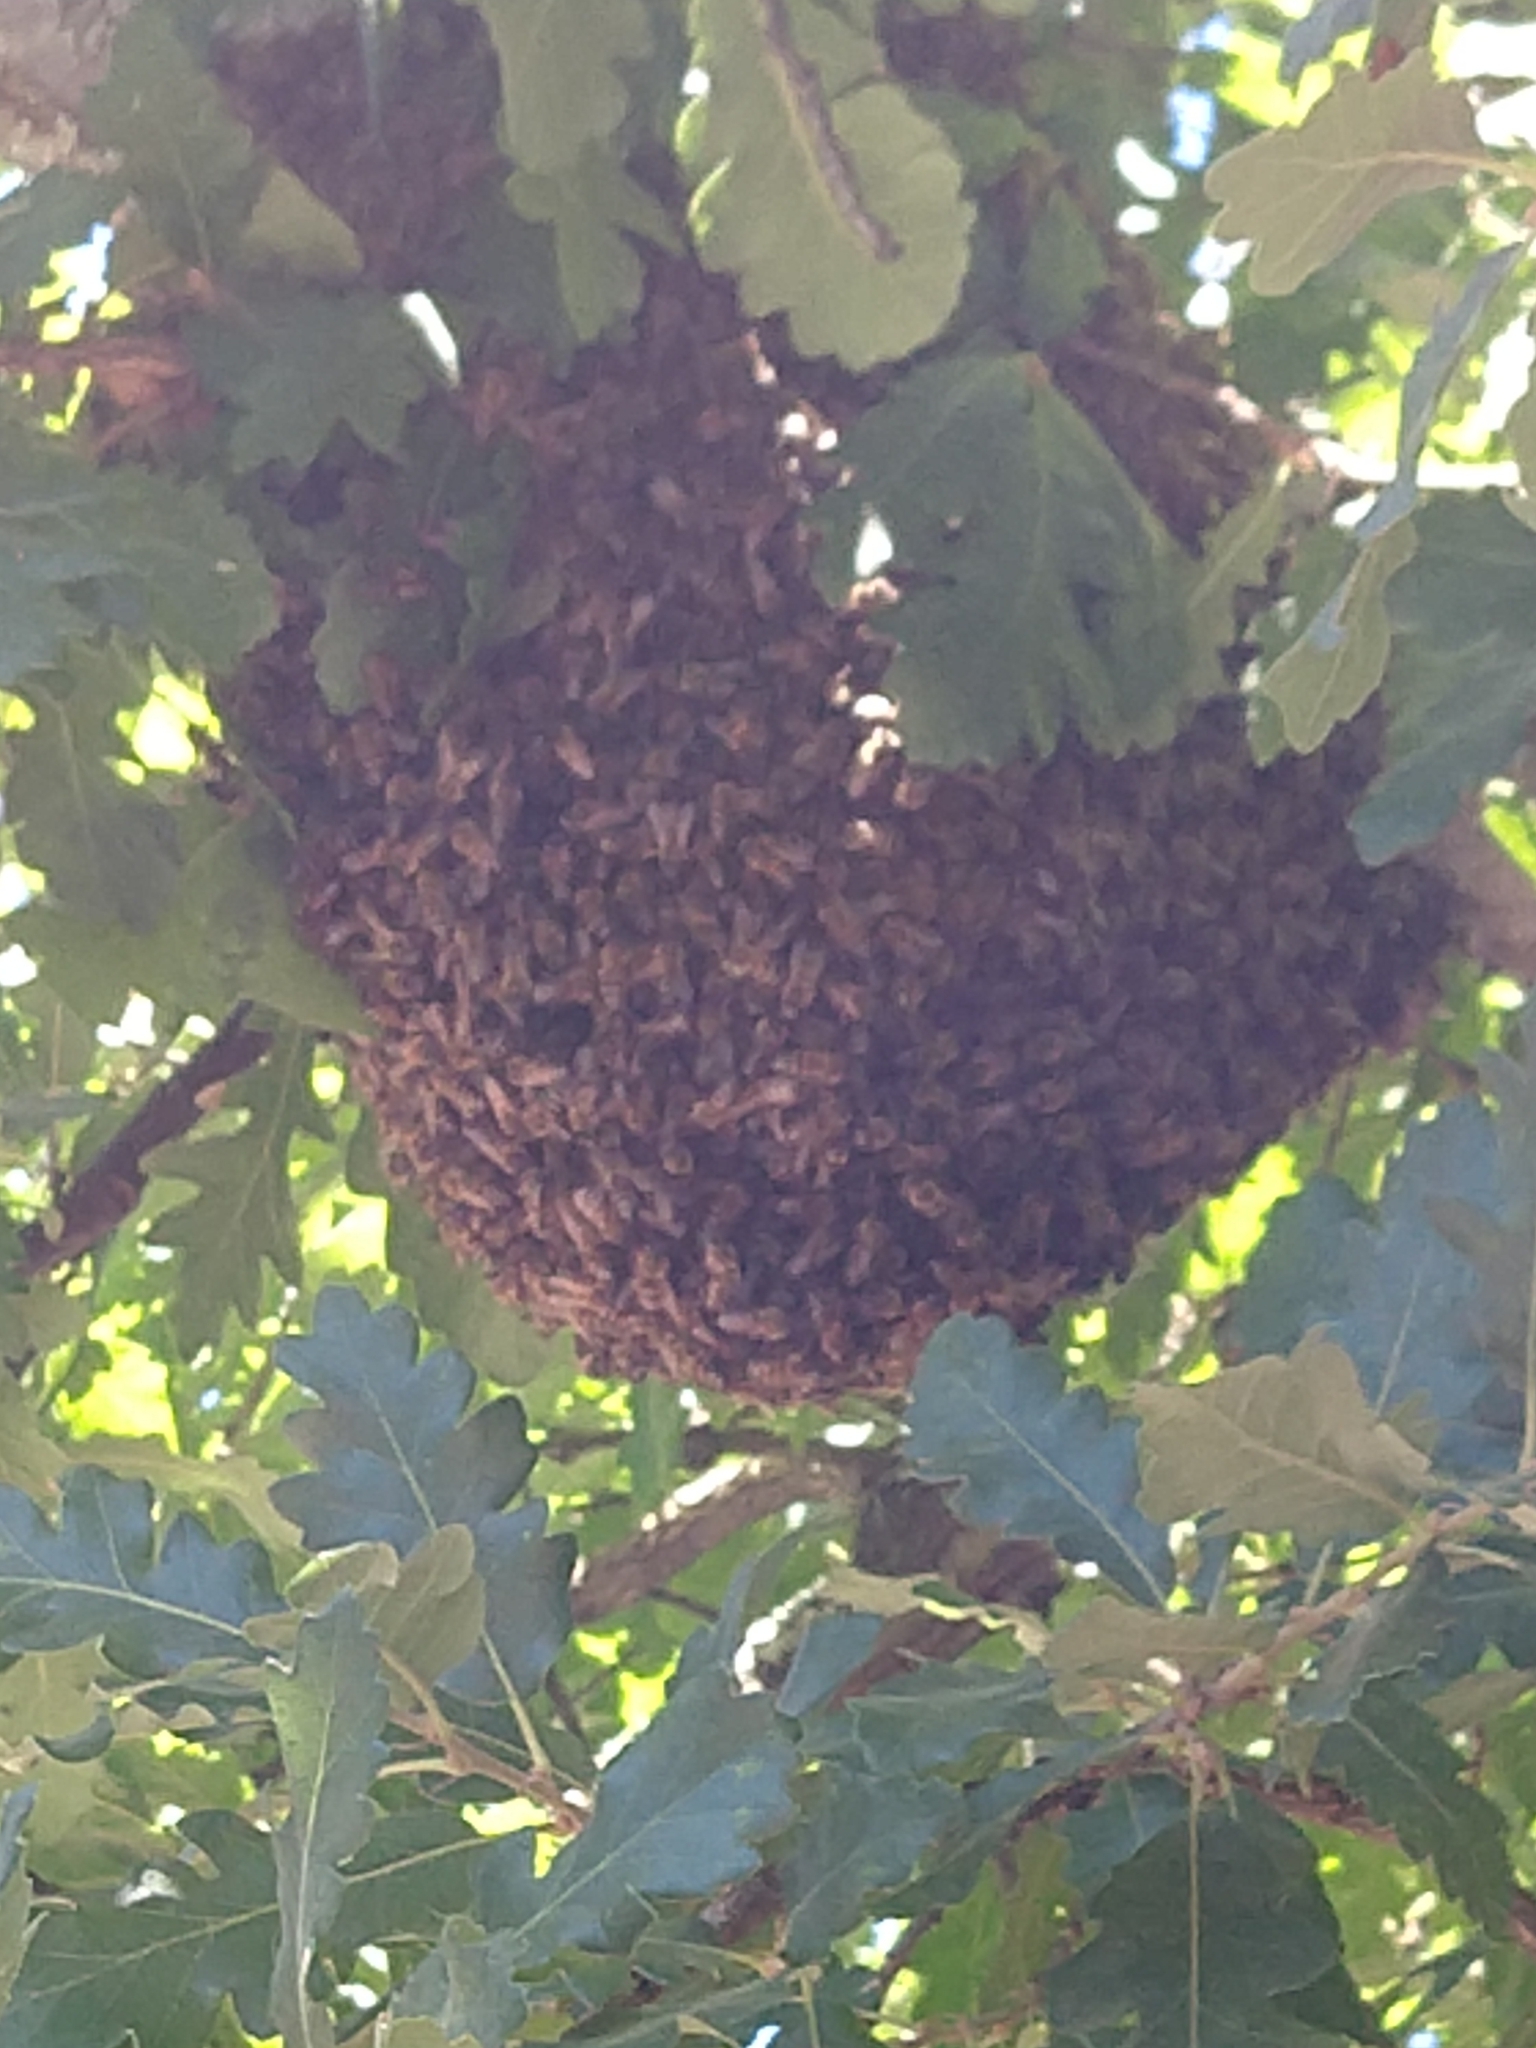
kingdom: Animalia
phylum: Arthropoda
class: Insecta
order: Hymenoptera
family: Apidae
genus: Apis
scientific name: Apis mellifera
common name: Honey bee
